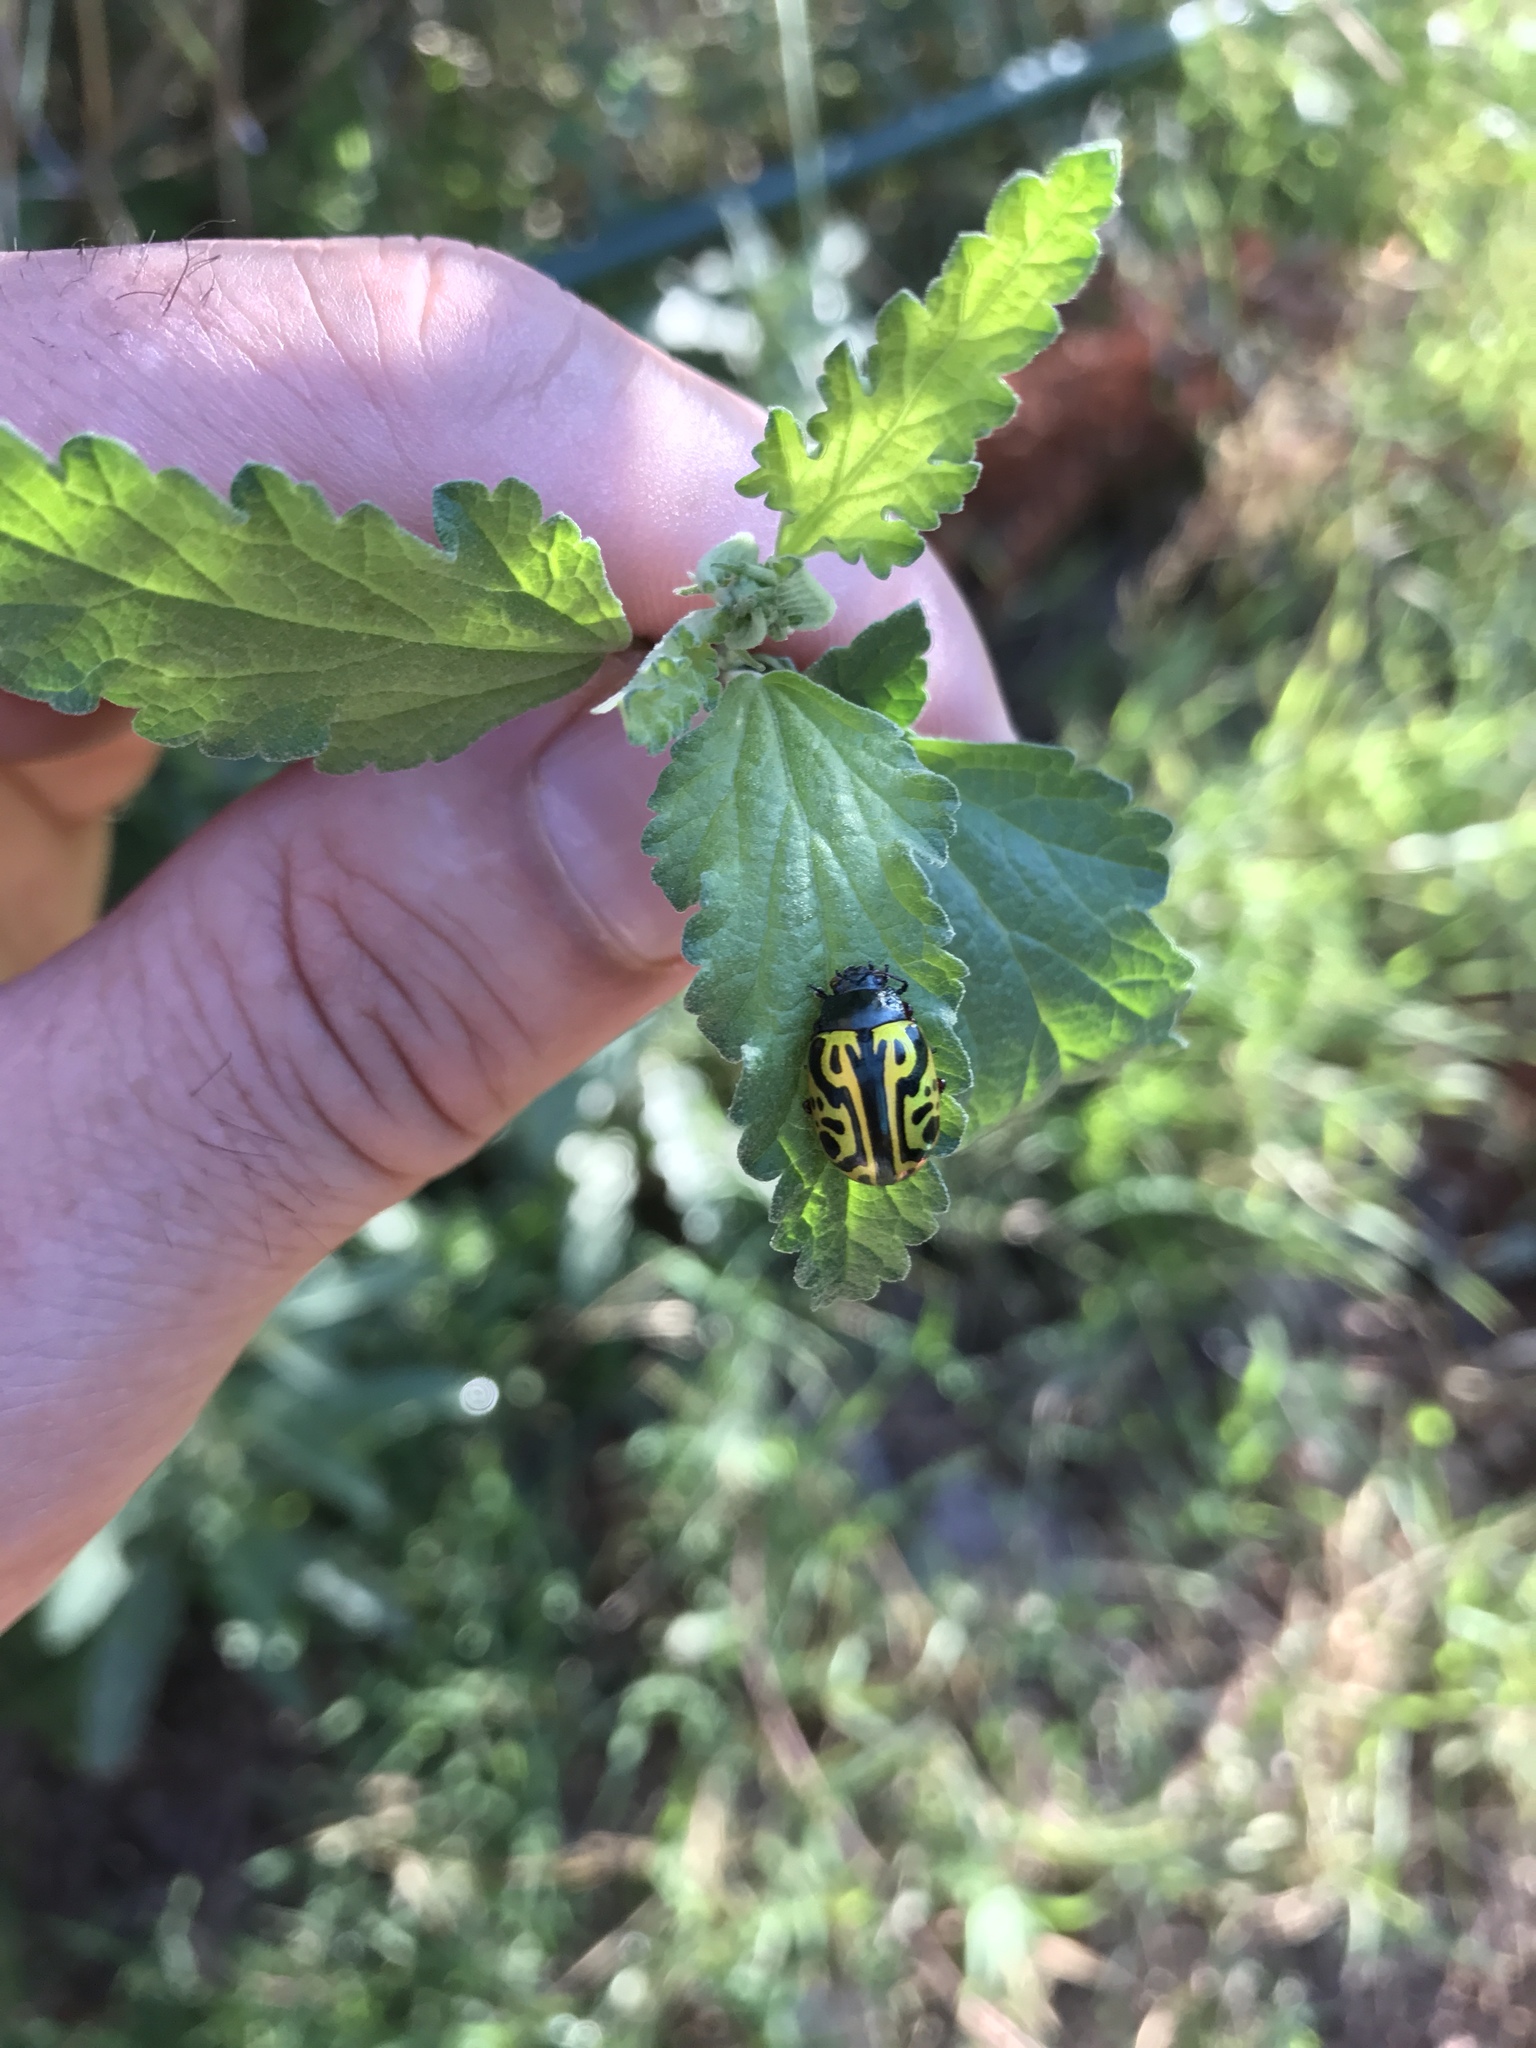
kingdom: Animalia
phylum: Arthropoda
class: Insecta
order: Coleoptera
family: Chrysomelidae
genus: Calligrapha
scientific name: Calligrapha serpentina
